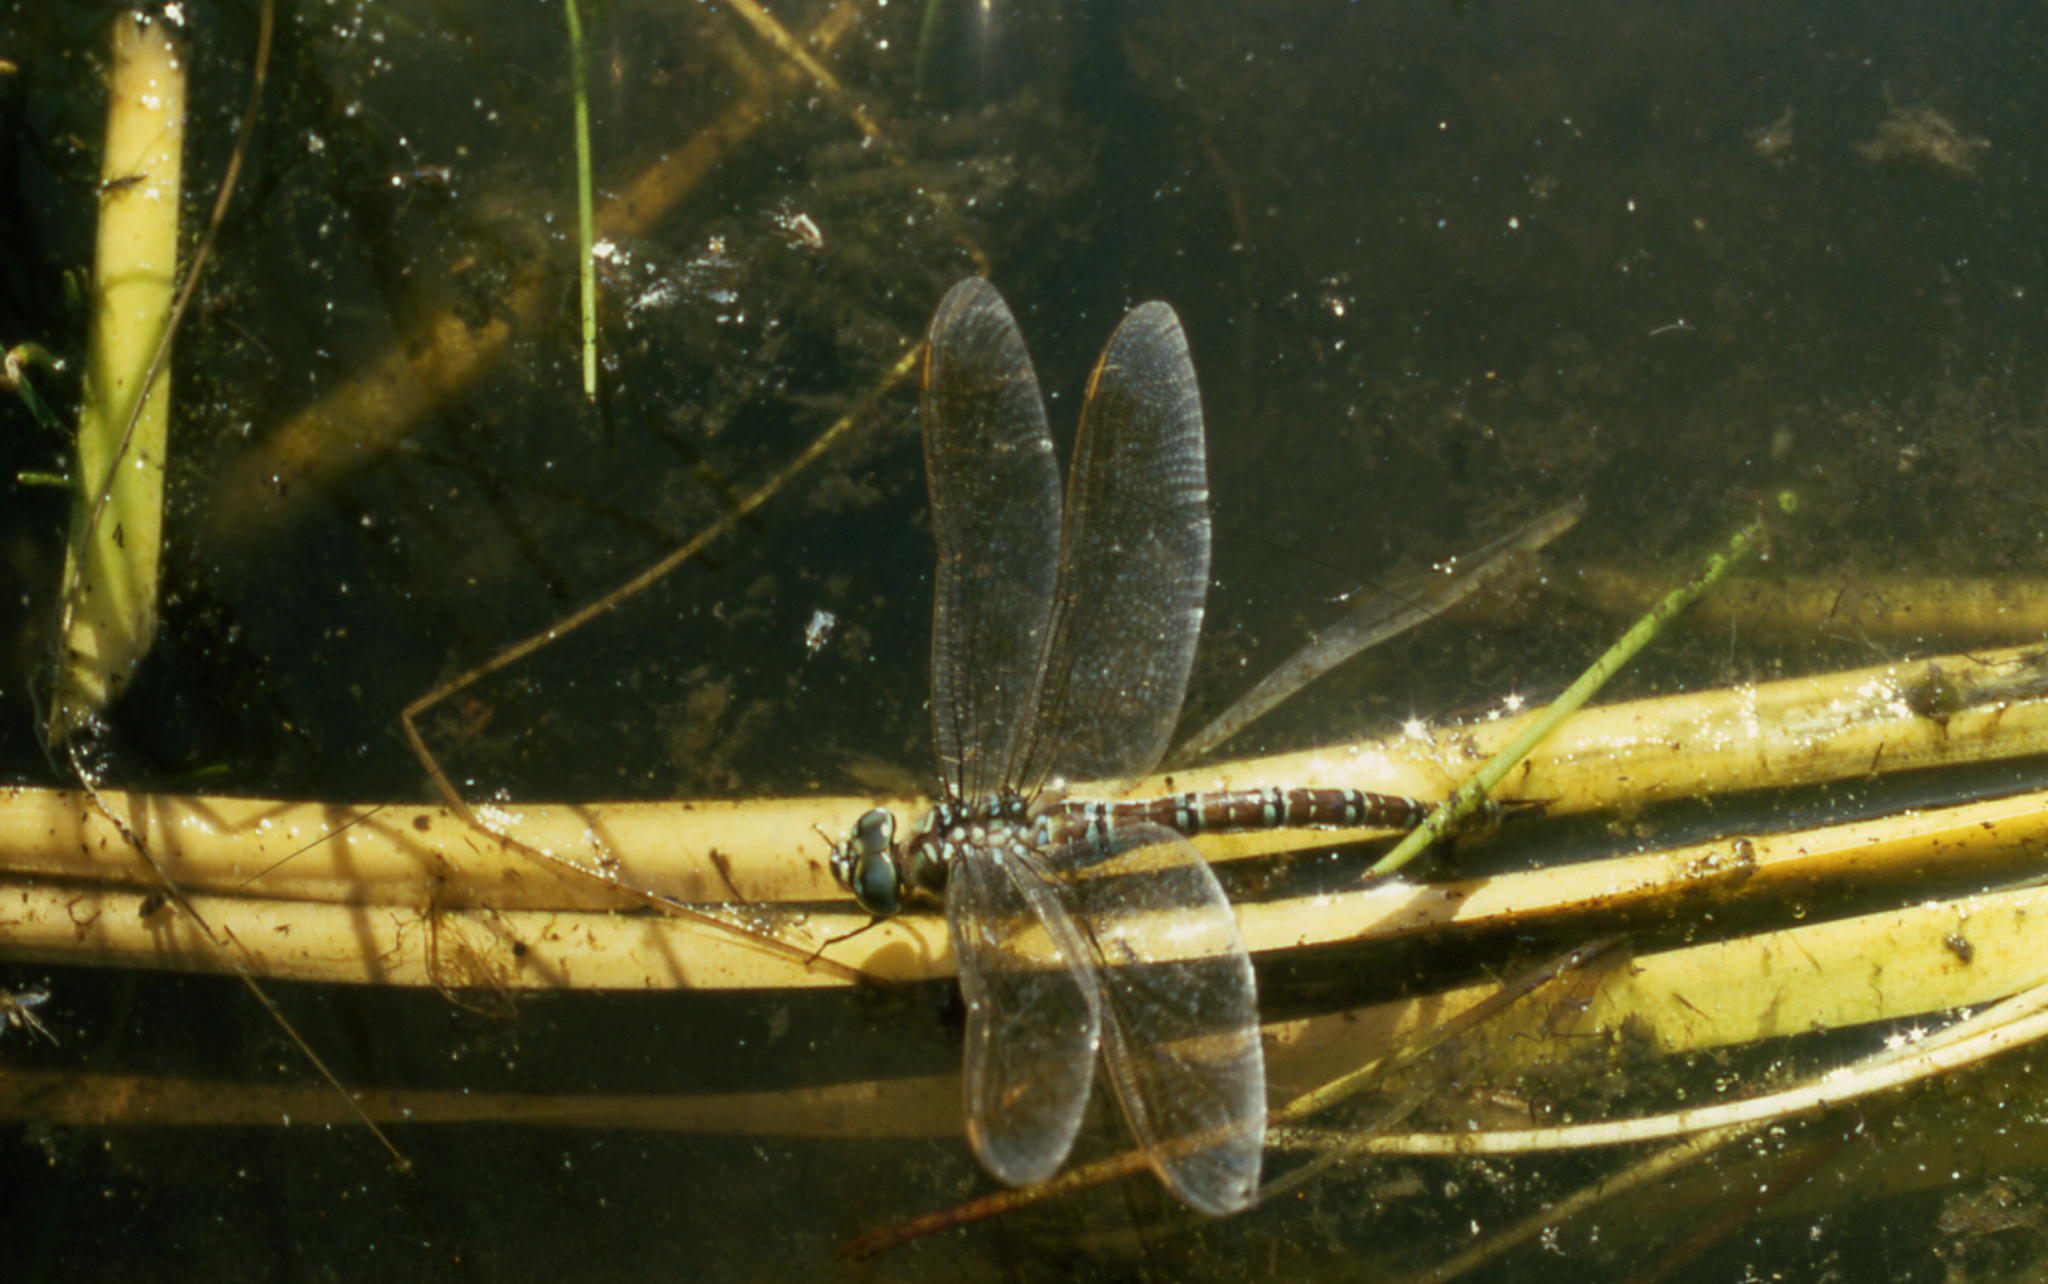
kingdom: Animalia
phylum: Arthropoda
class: Insecta
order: Odonata
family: Aeshnidae
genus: Aeshna
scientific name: Aeshna crenata
